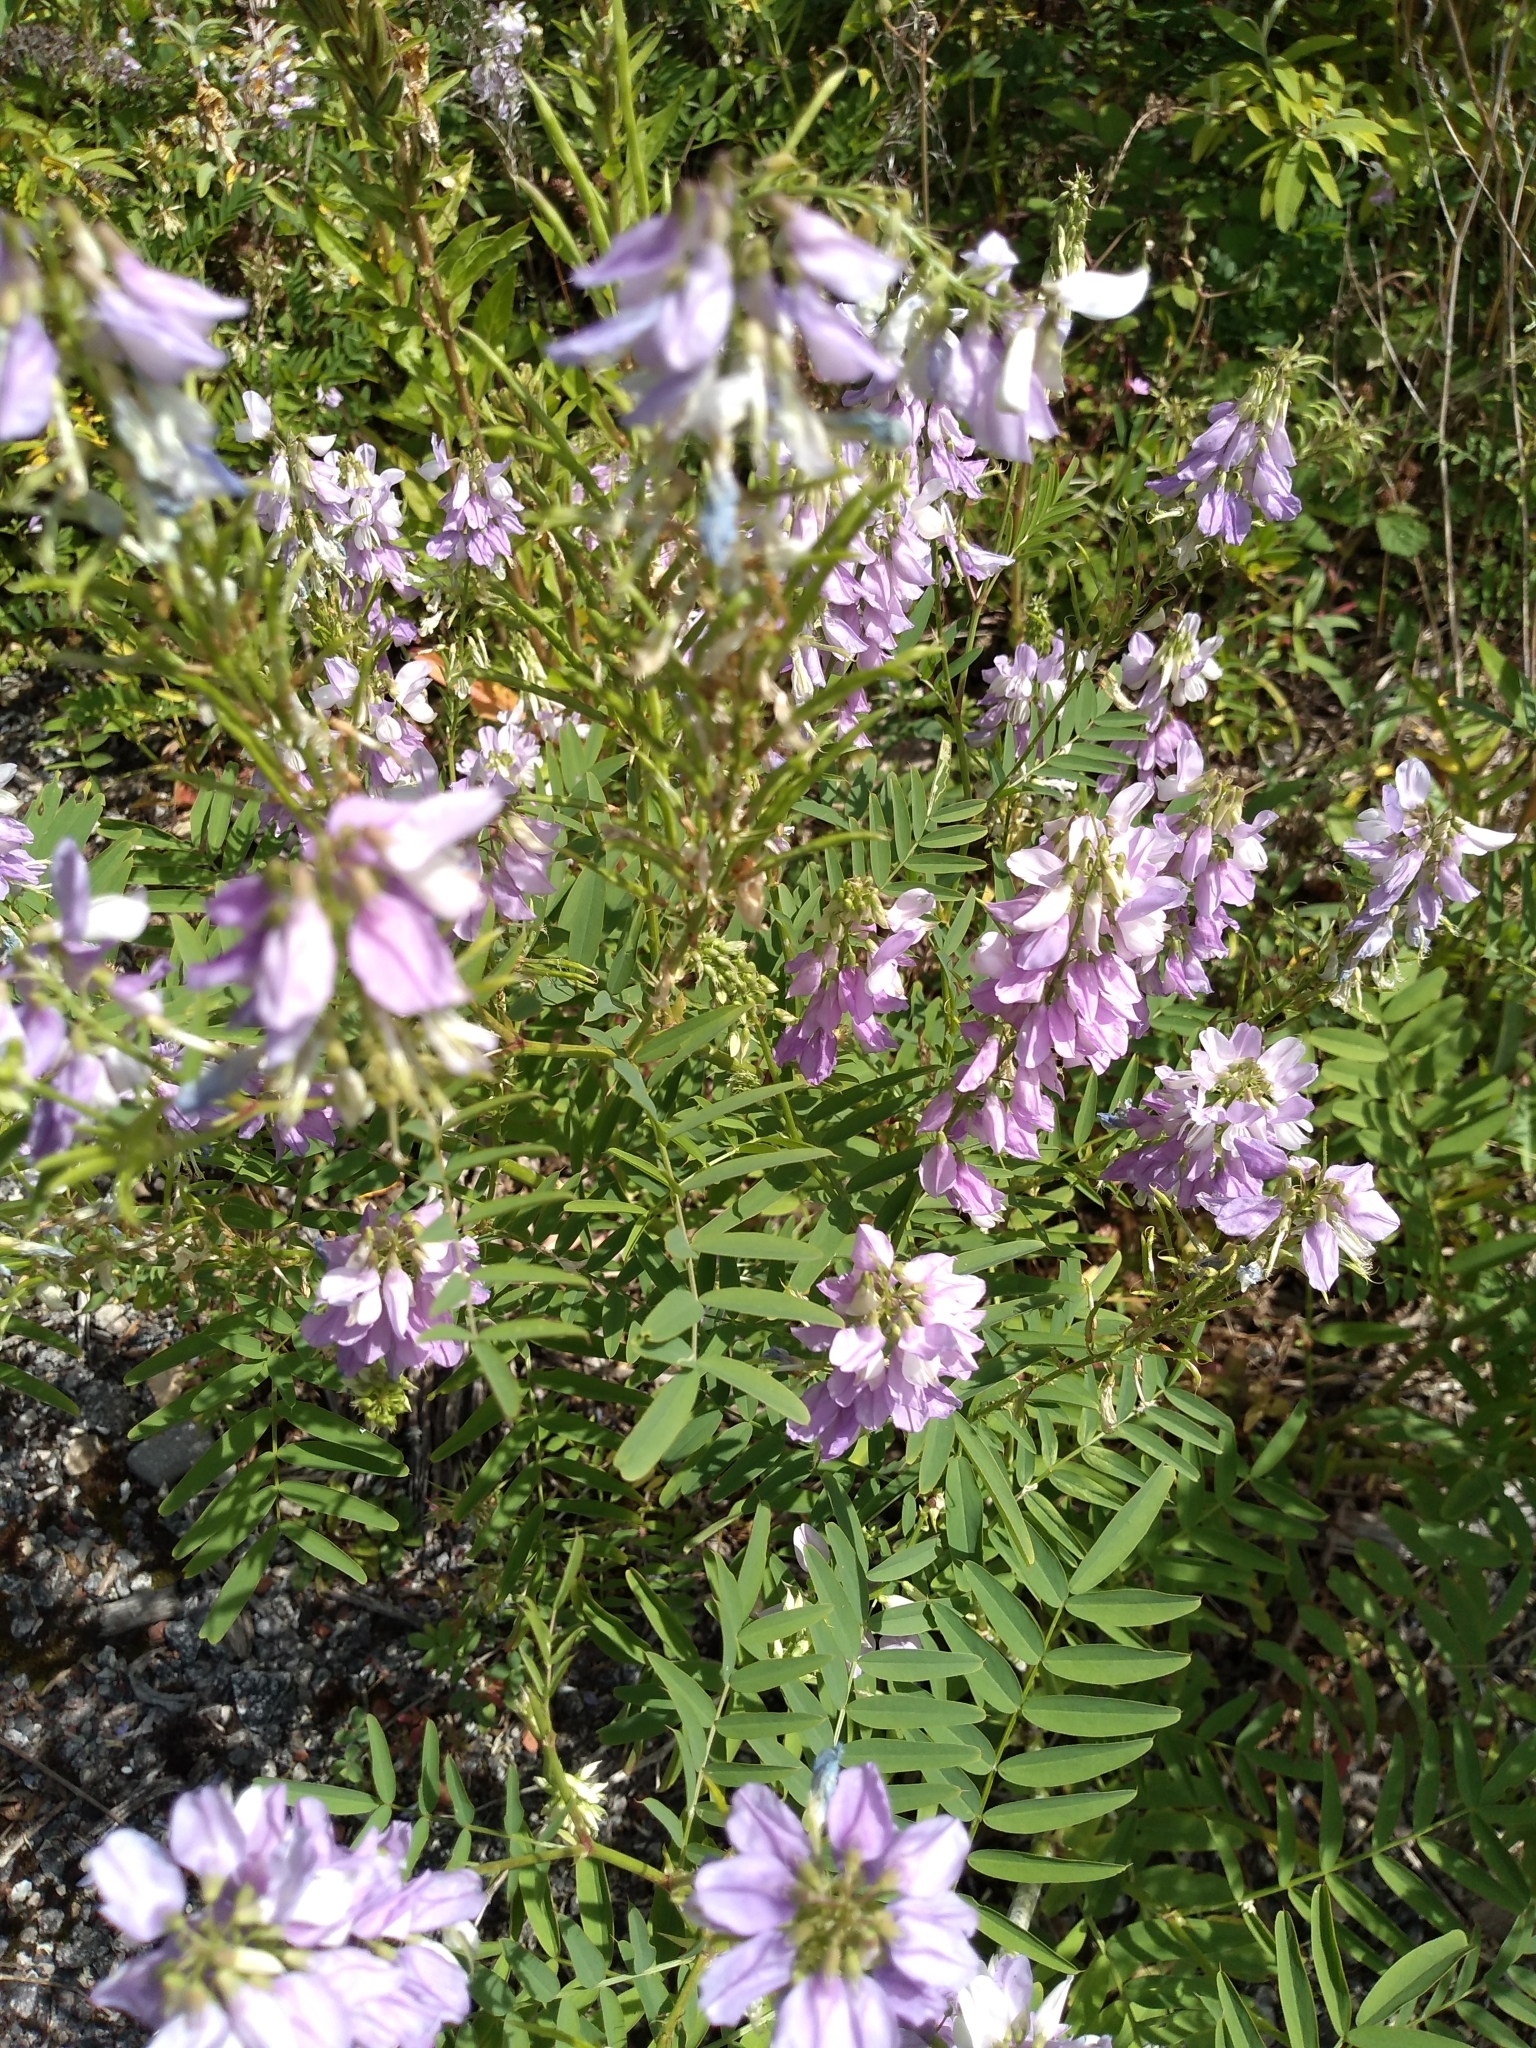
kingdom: Plantae
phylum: Tracheophyta
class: Magnoliopsida
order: Fabales
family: Fabaceae
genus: Galega
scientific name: Galega officinalis
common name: Goat's-rue
